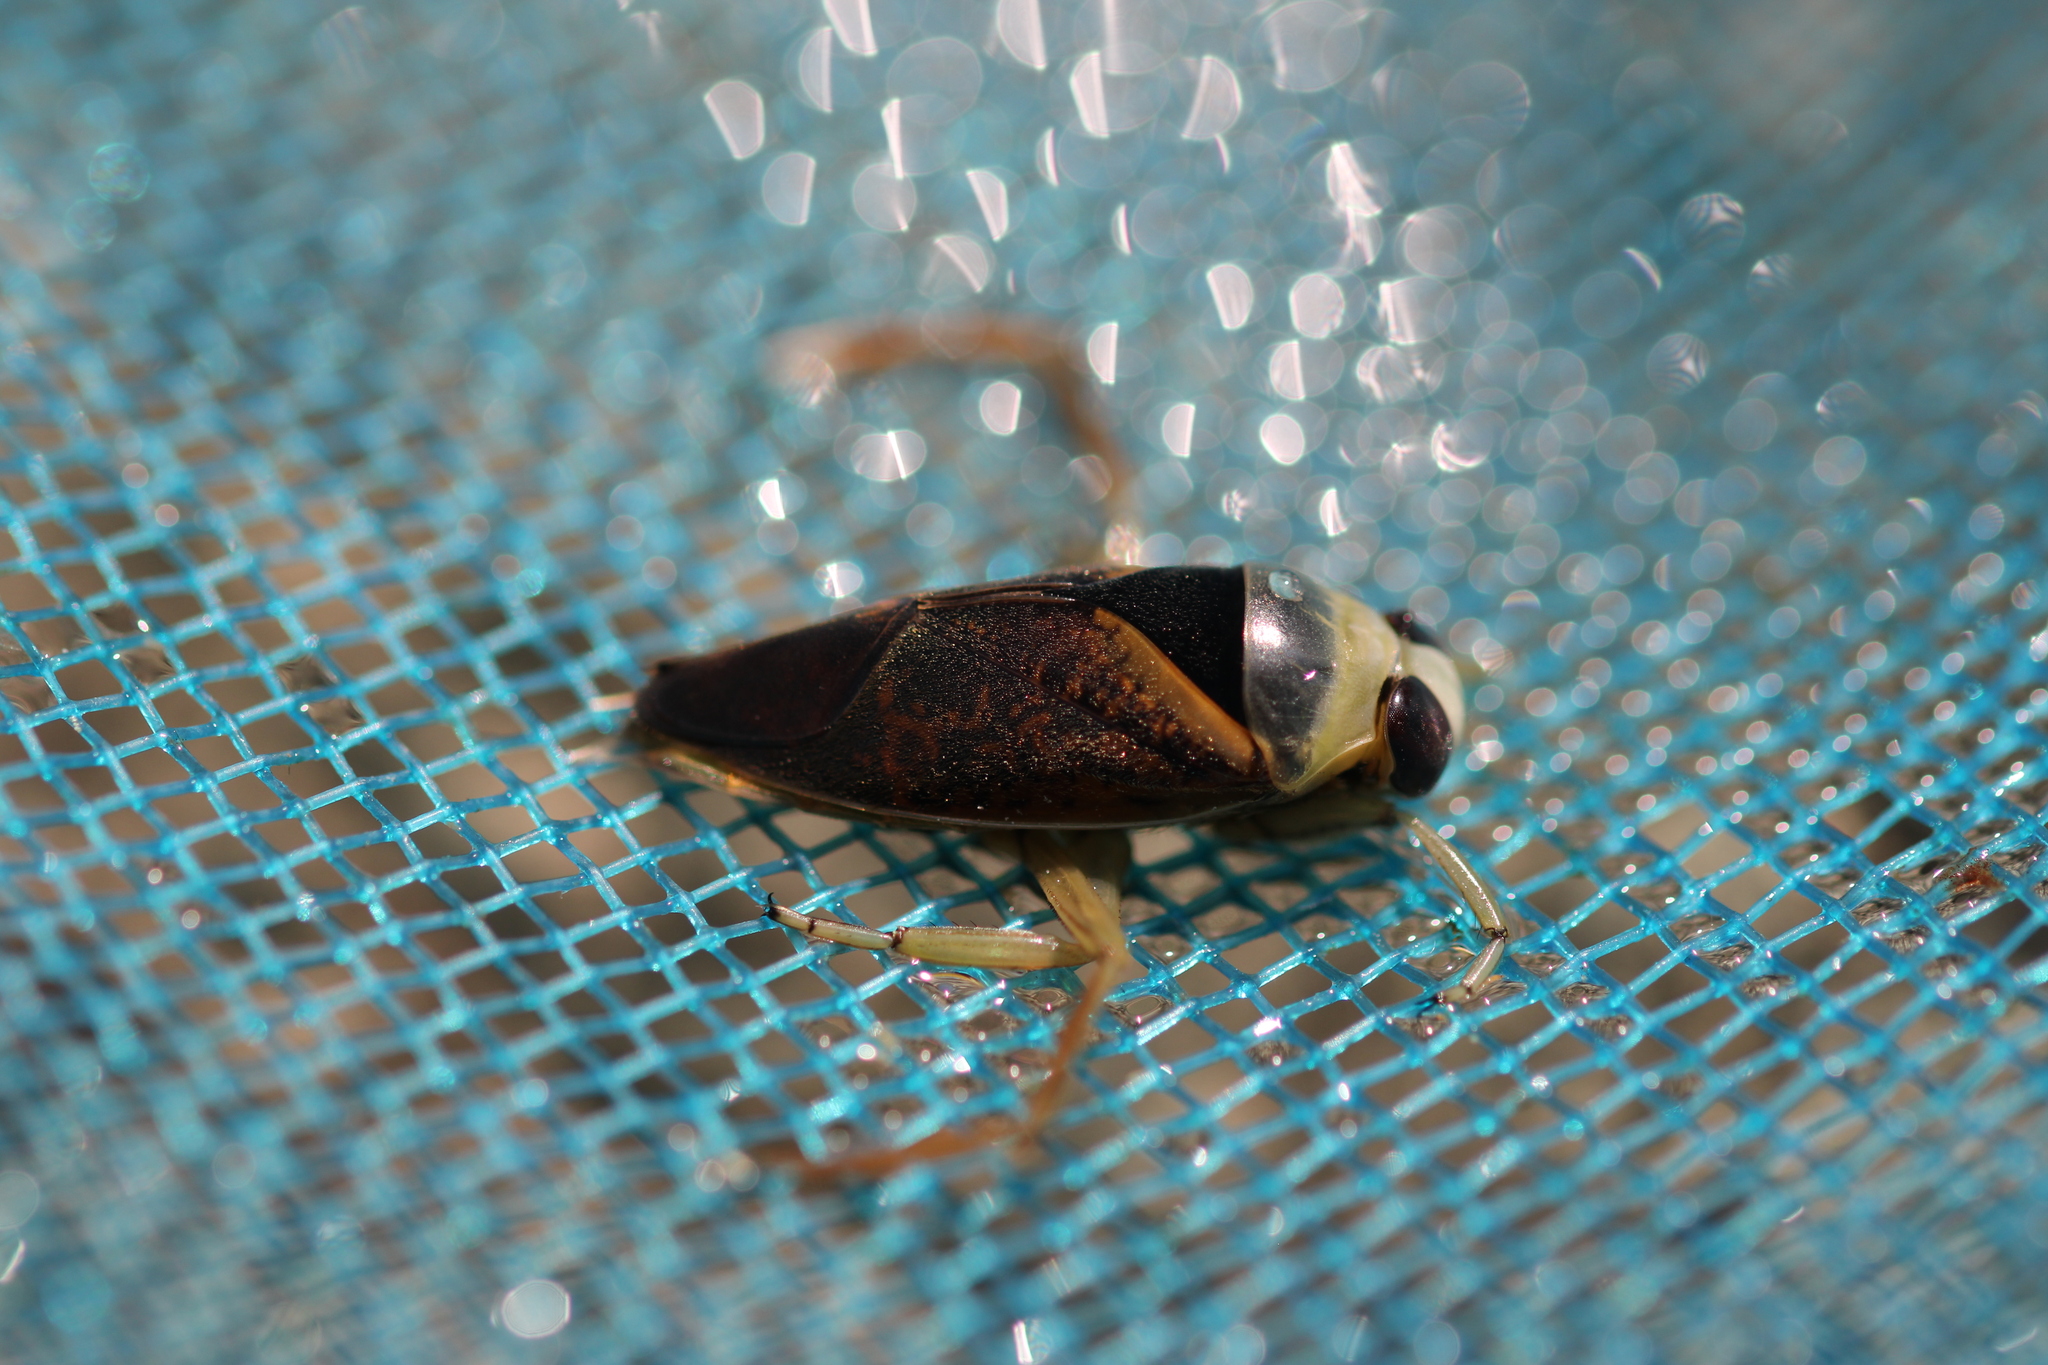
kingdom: Animalia
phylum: Arthropoda
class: Insecta
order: Hemiptera
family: Notonectidae
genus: Notonecta
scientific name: Notonecta maculata
